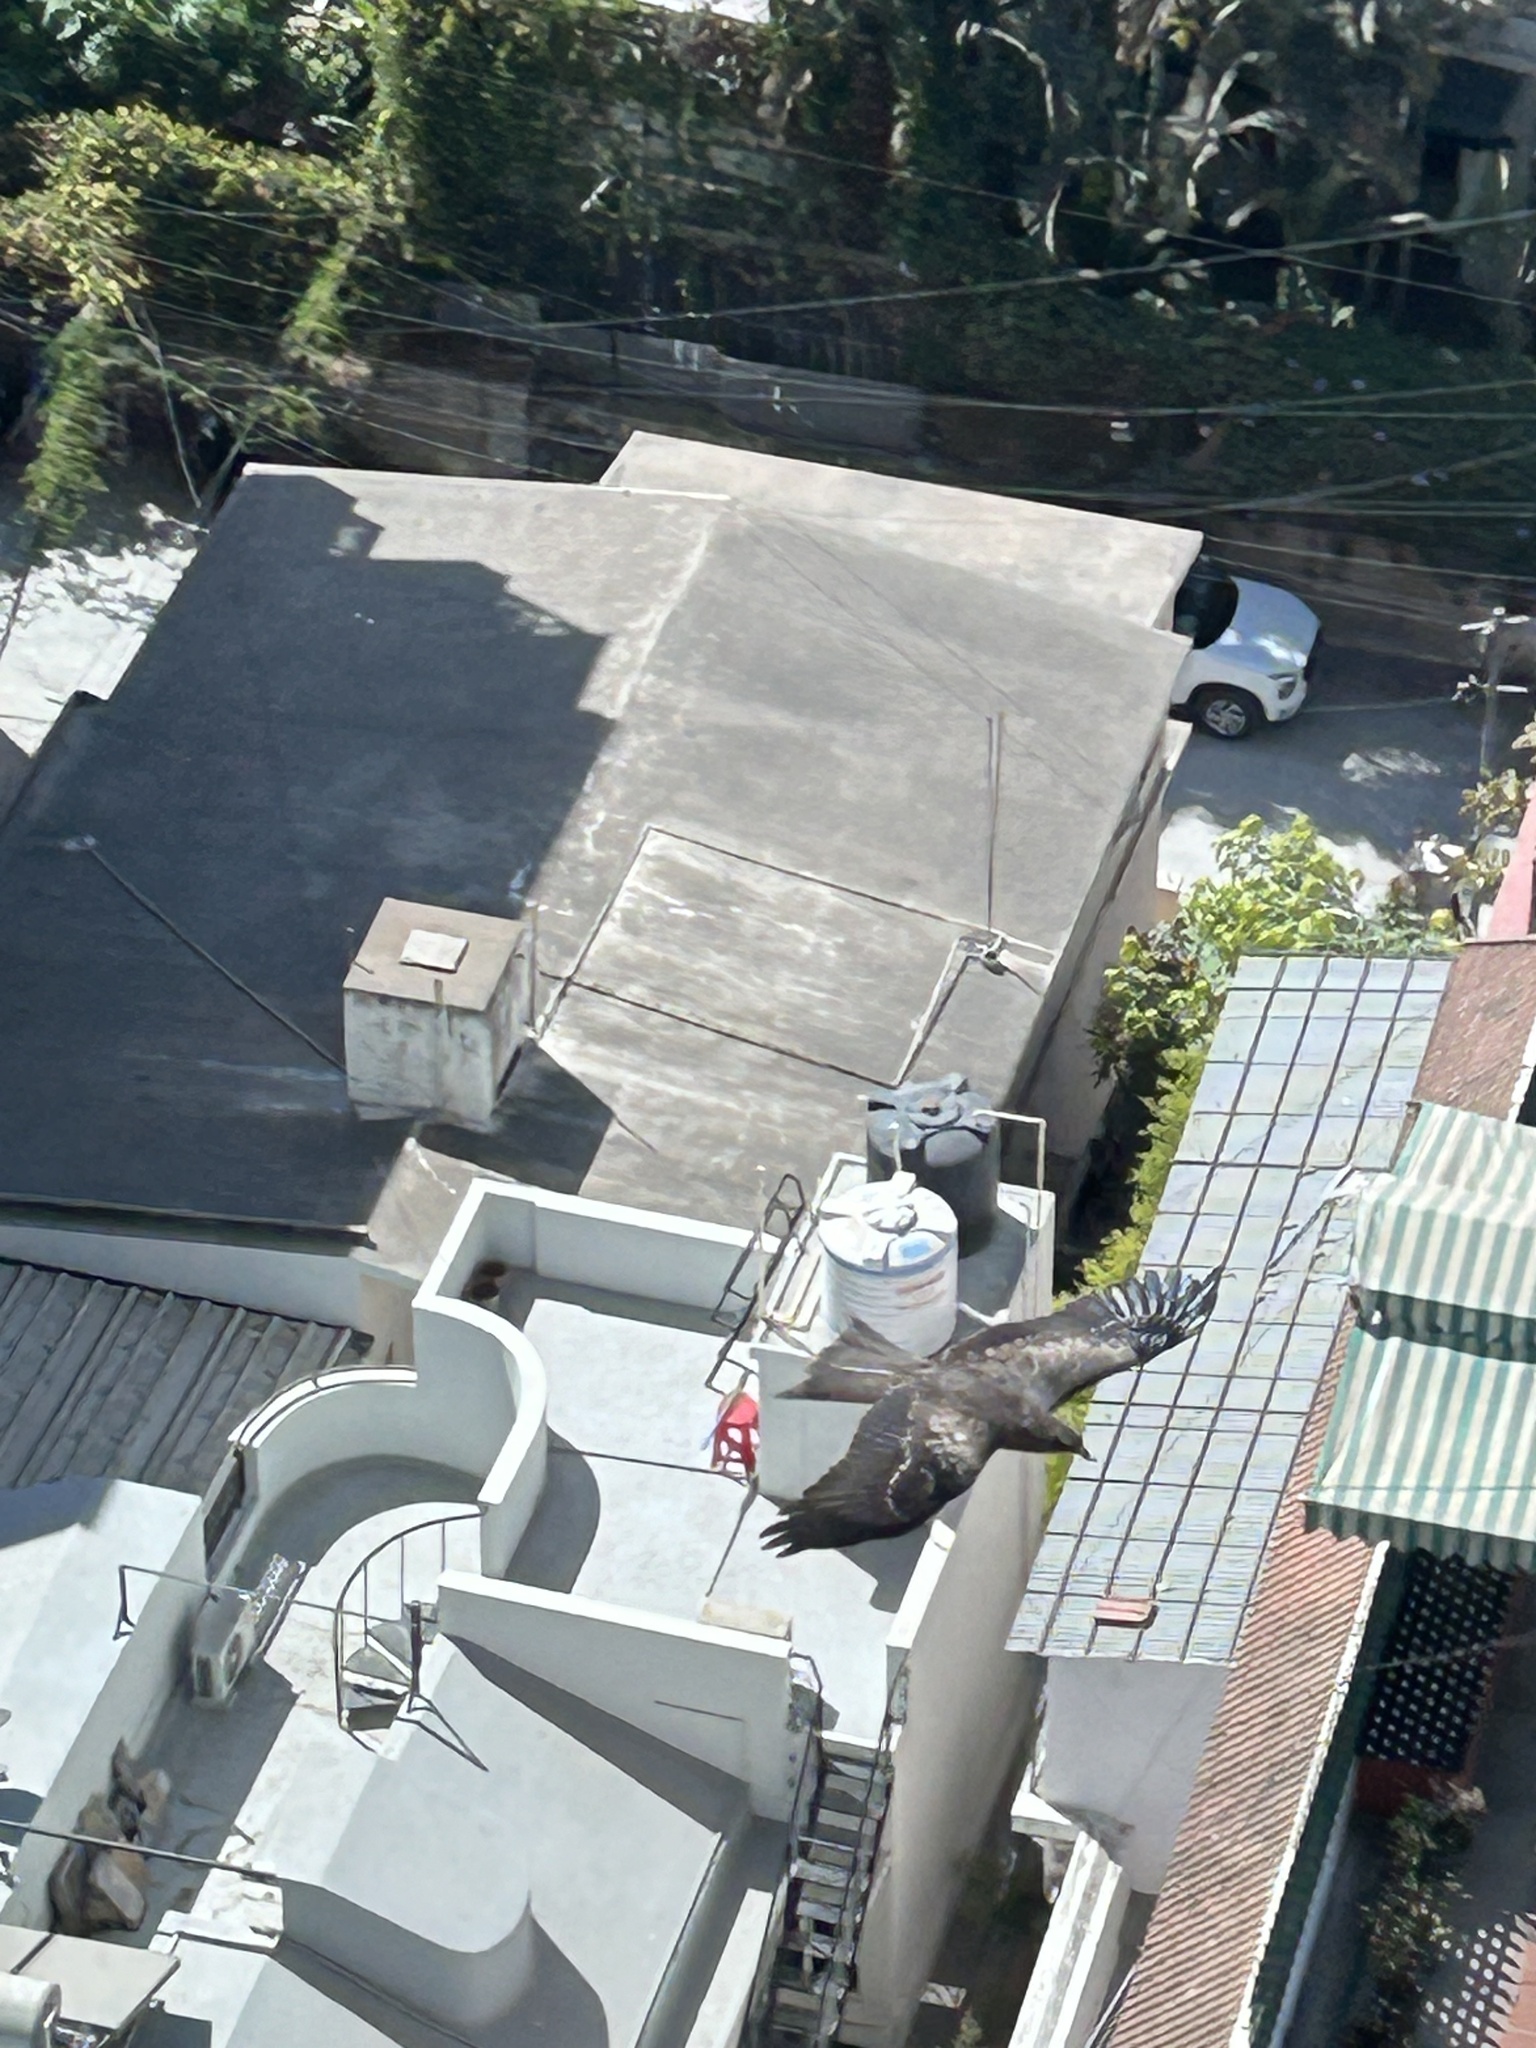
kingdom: Animalia
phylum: Chordata
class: Aves
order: Accipitriformes
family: Accipitridae
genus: Milvus
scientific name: Milvus migrans
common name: Black kite
